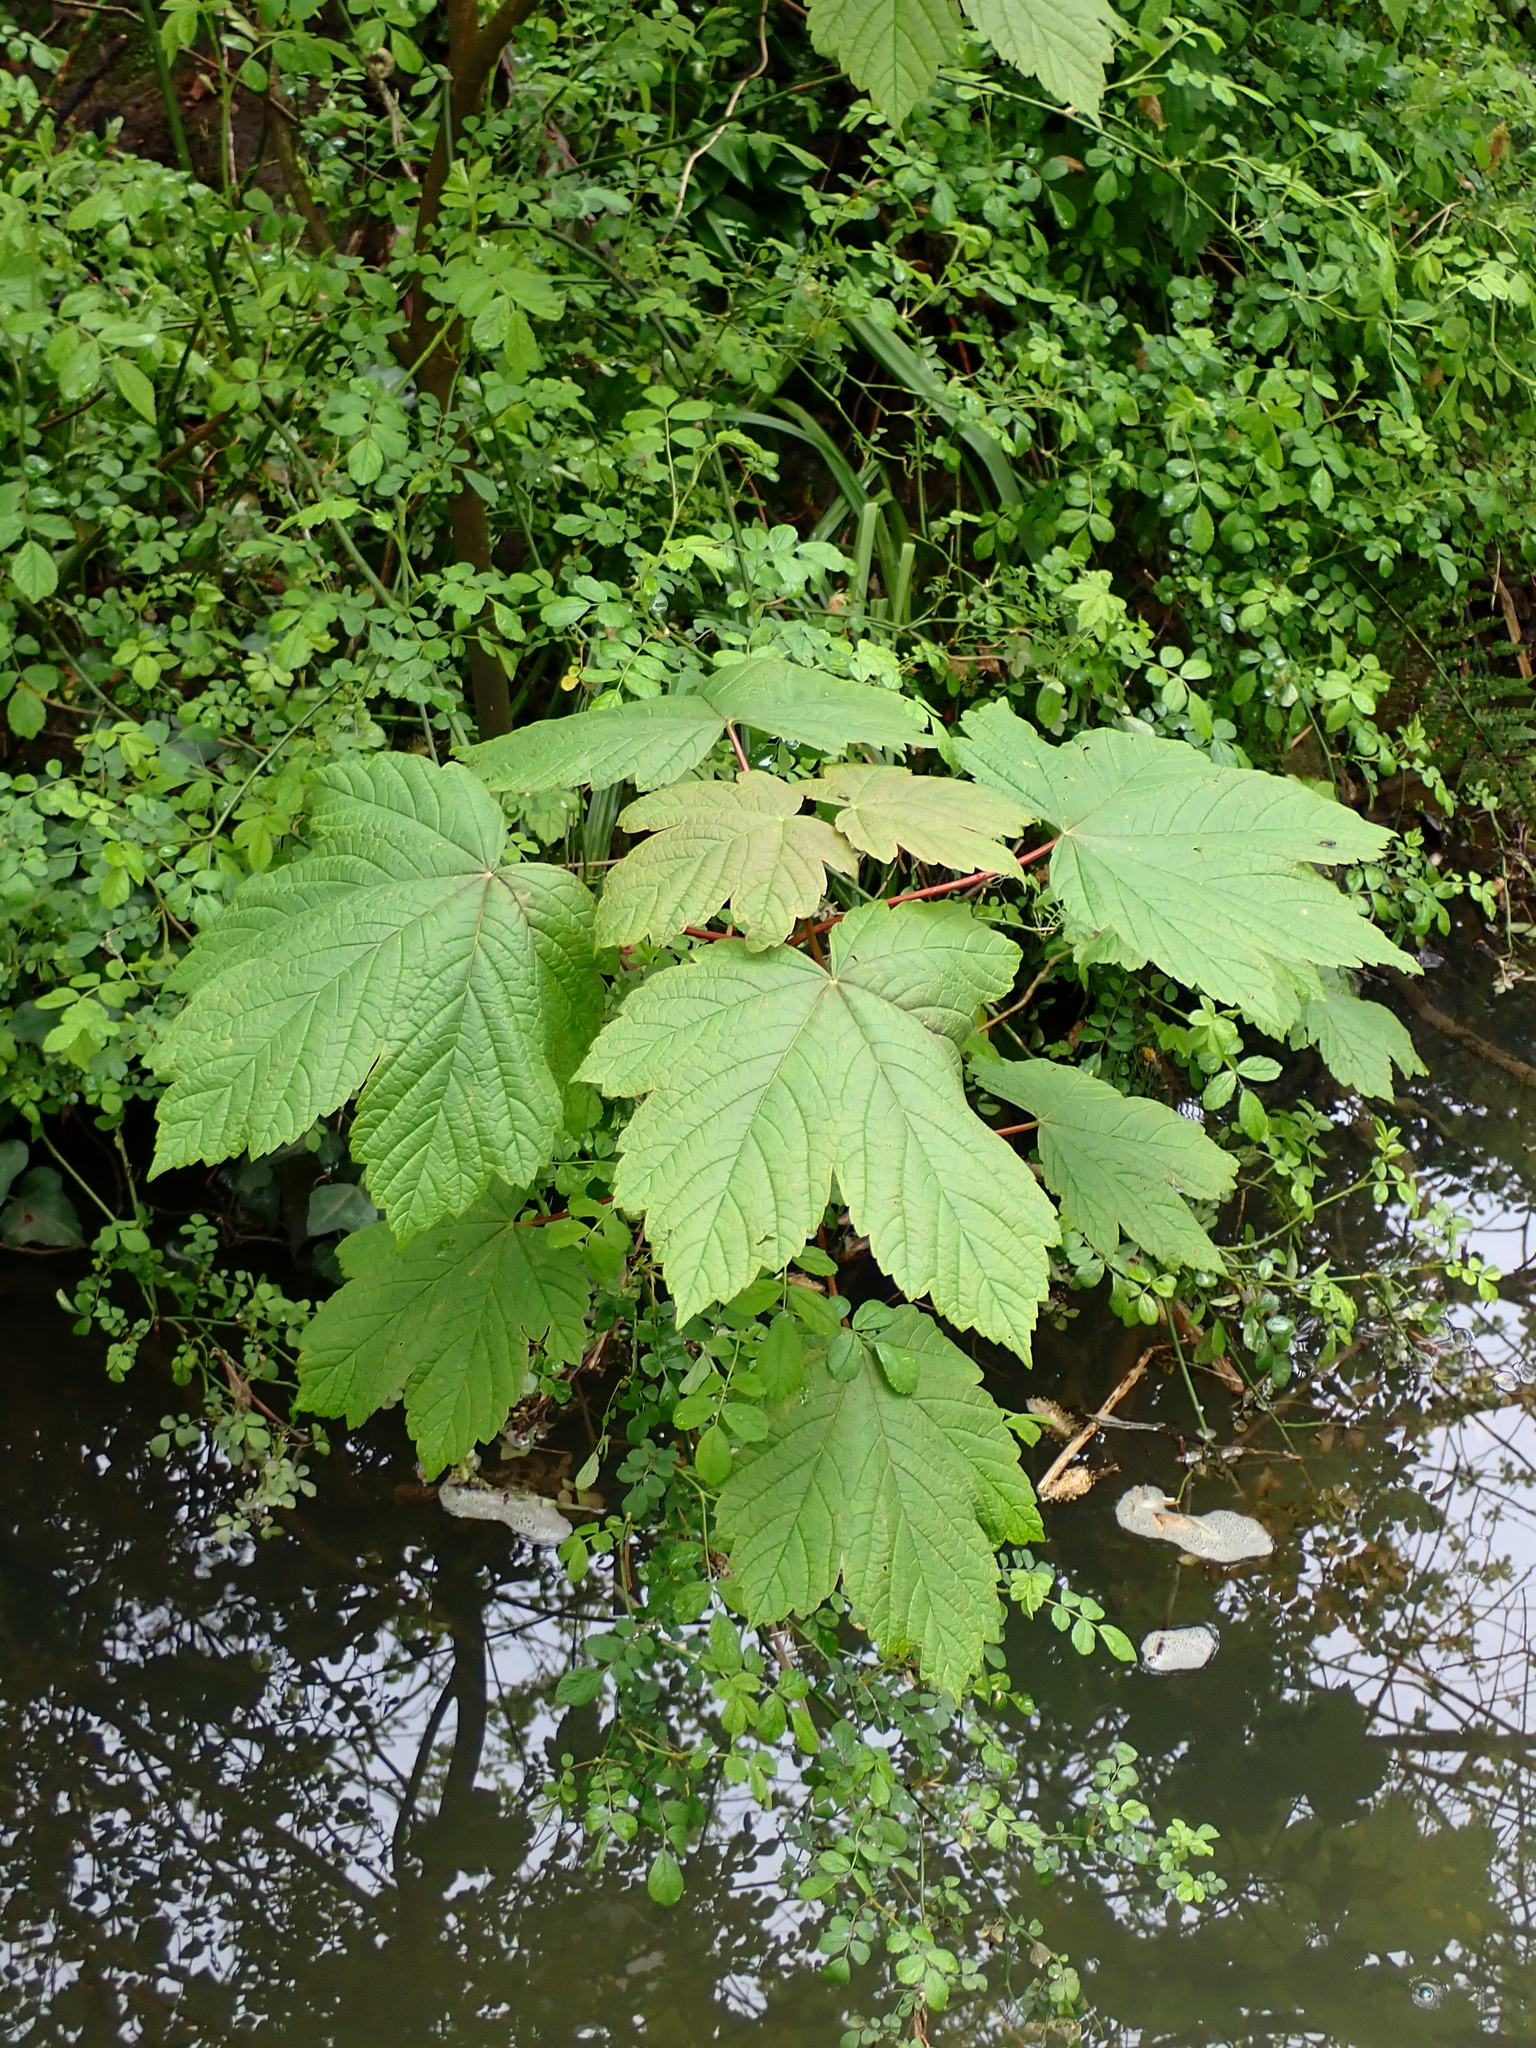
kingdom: Plantae
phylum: Tracheophyta
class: Magnoliopsida
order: Sapindales
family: Sapindaceae
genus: Acer
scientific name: Acer pseudoplatanus
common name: Sycamore
